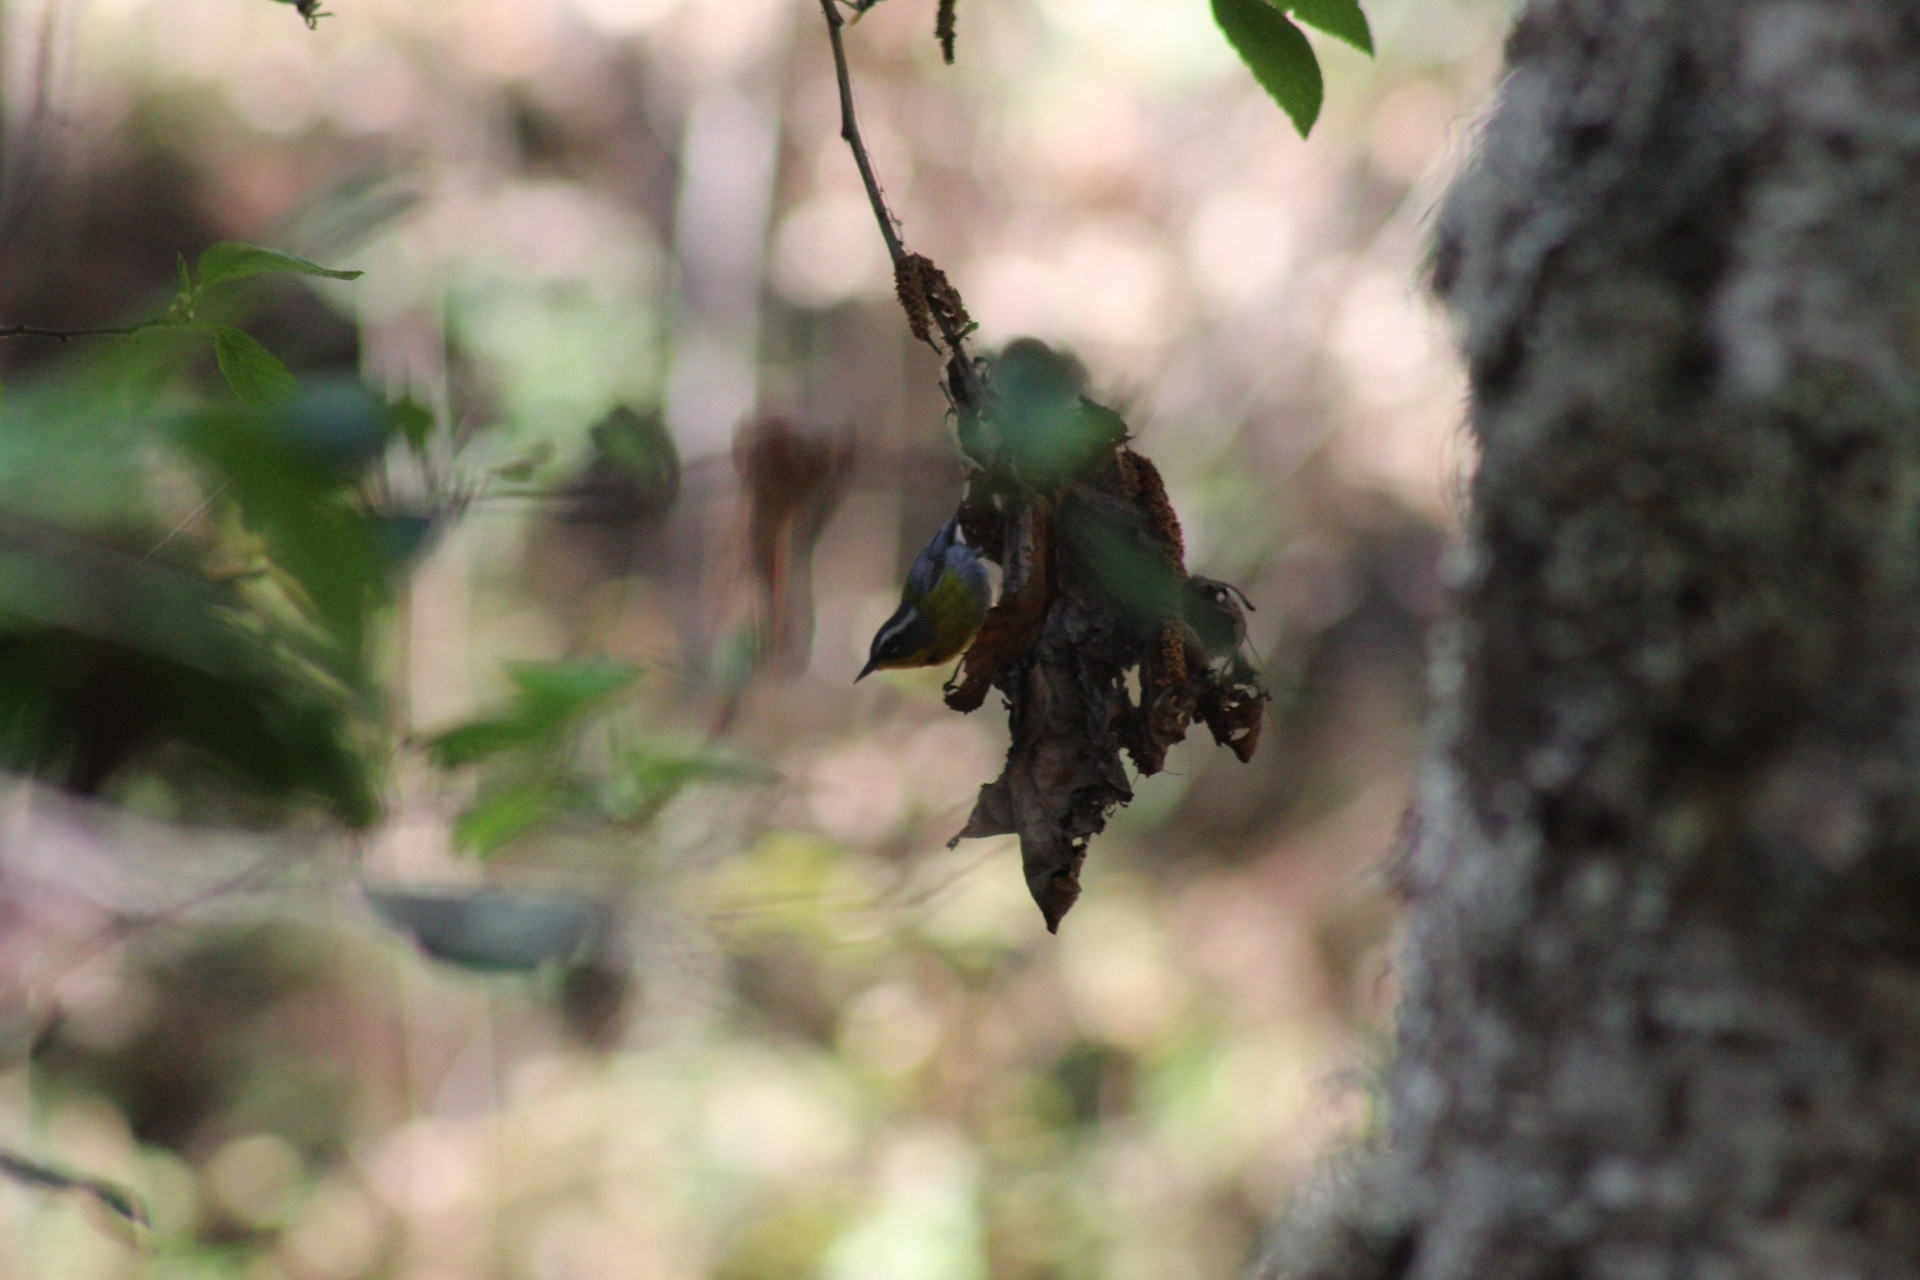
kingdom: Animalia
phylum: Chordata
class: Aves
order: Passeriformes
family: Parulidae
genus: Oreothlypis
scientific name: Oreothlypis superciliosa
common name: Crescent-chested warbler
